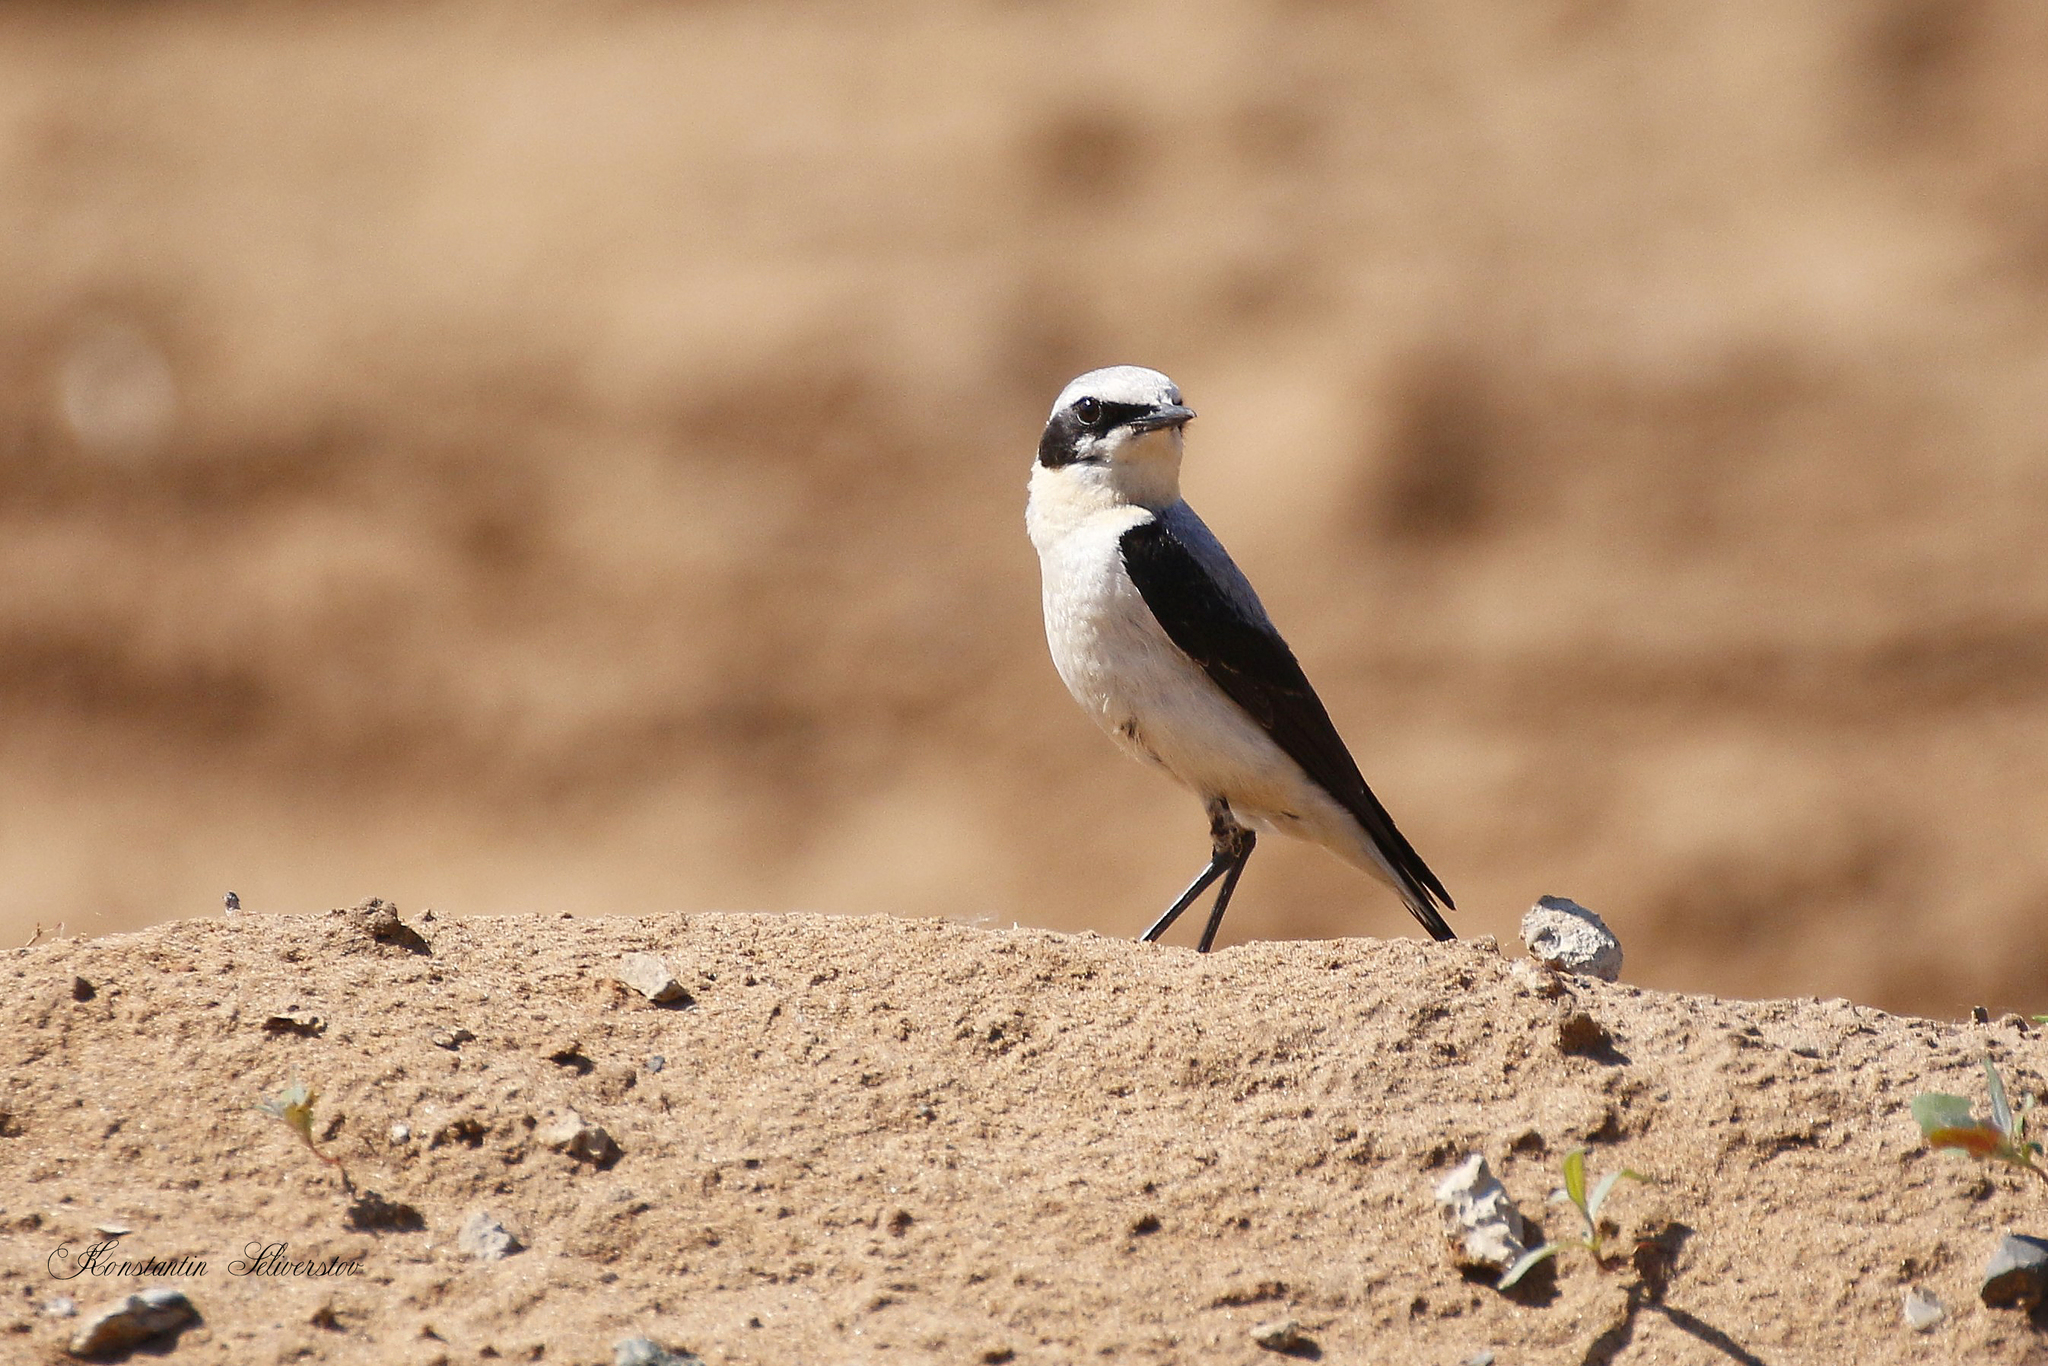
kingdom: Animalia
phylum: Chordata
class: Aves
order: Passeriformes
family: Muscicapidae
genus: Oenanthe
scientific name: Oenanthe oenanthe
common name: Northern wheatear
